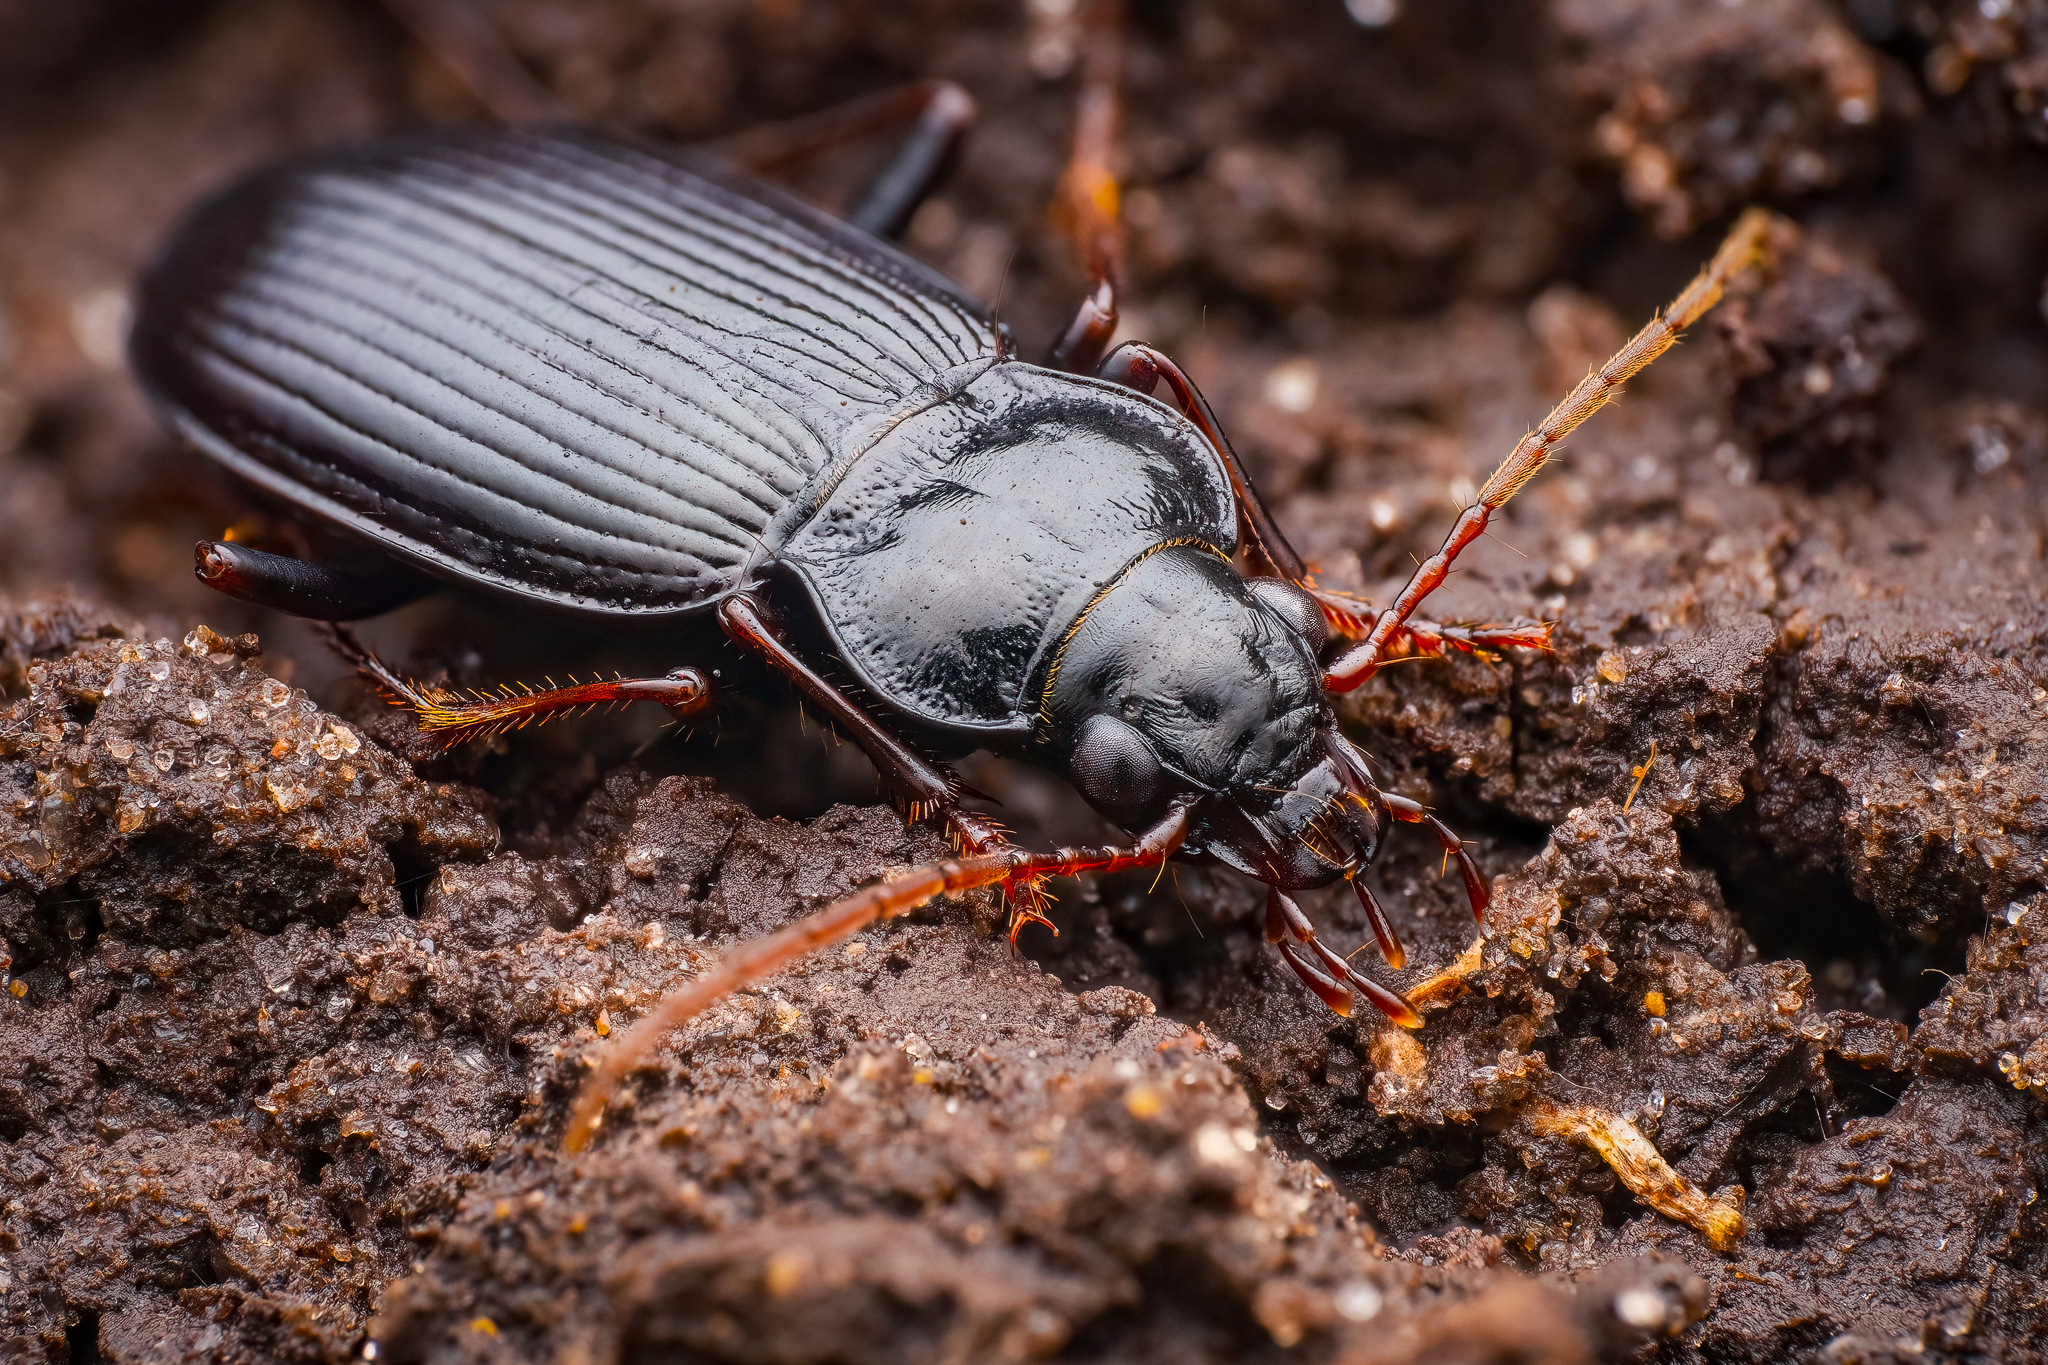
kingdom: Animalia
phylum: Arthropoda
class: Insecta
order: Coleoptera
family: Carabidae
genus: Nebria
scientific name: Nebria brevicollis
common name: Short-necked gazelle beetle
